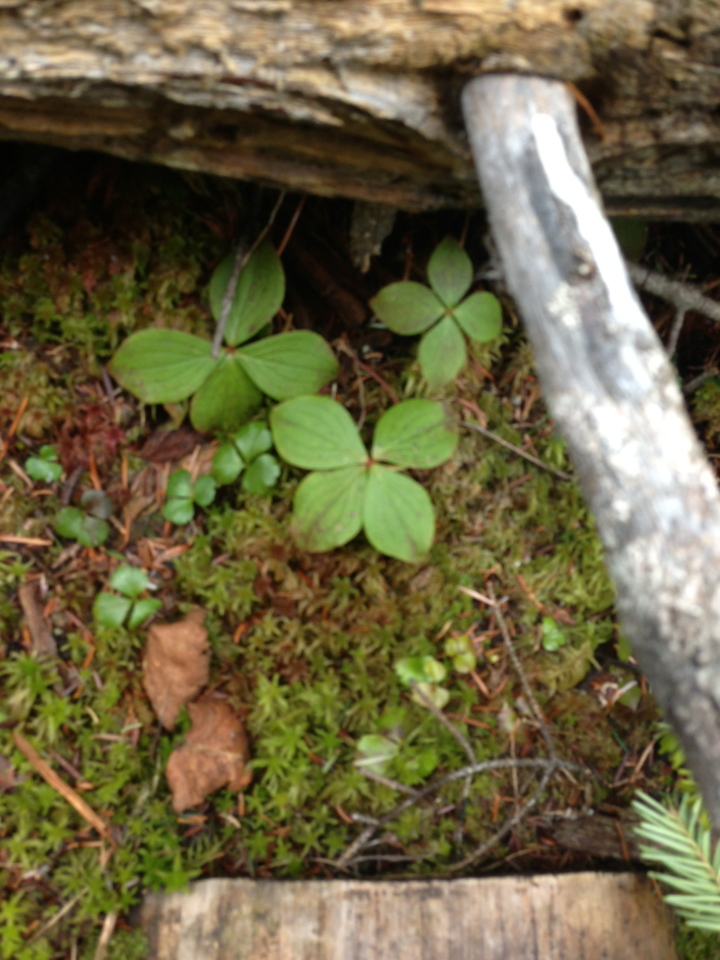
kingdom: Plantae
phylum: Tracheophyta
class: Magnoliopsida
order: Cornales
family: Cornaceae
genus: Cornus
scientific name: Cornus canadensis
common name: Creeping dogwood
